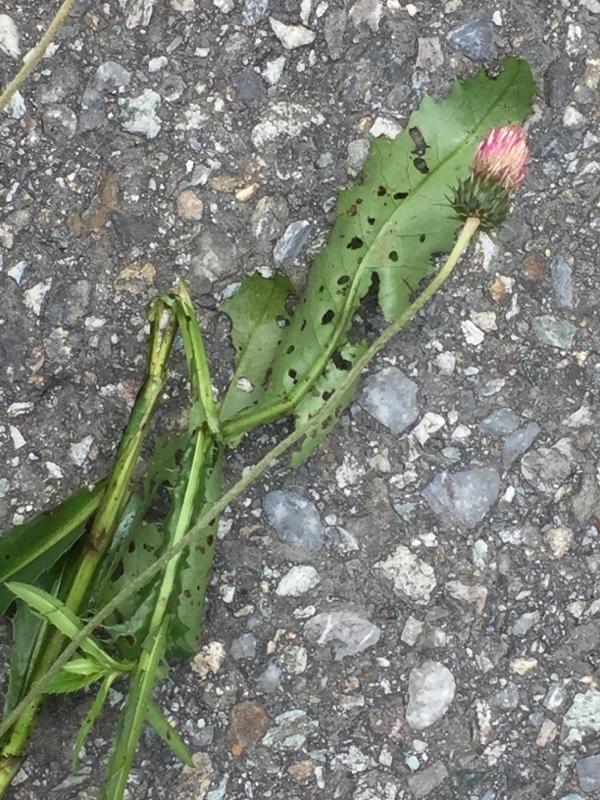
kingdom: Plantae
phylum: Tracheophyta
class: Magnoliopsida
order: Asterales
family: Asteraceae
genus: Carduus
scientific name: Carduus defloratus
